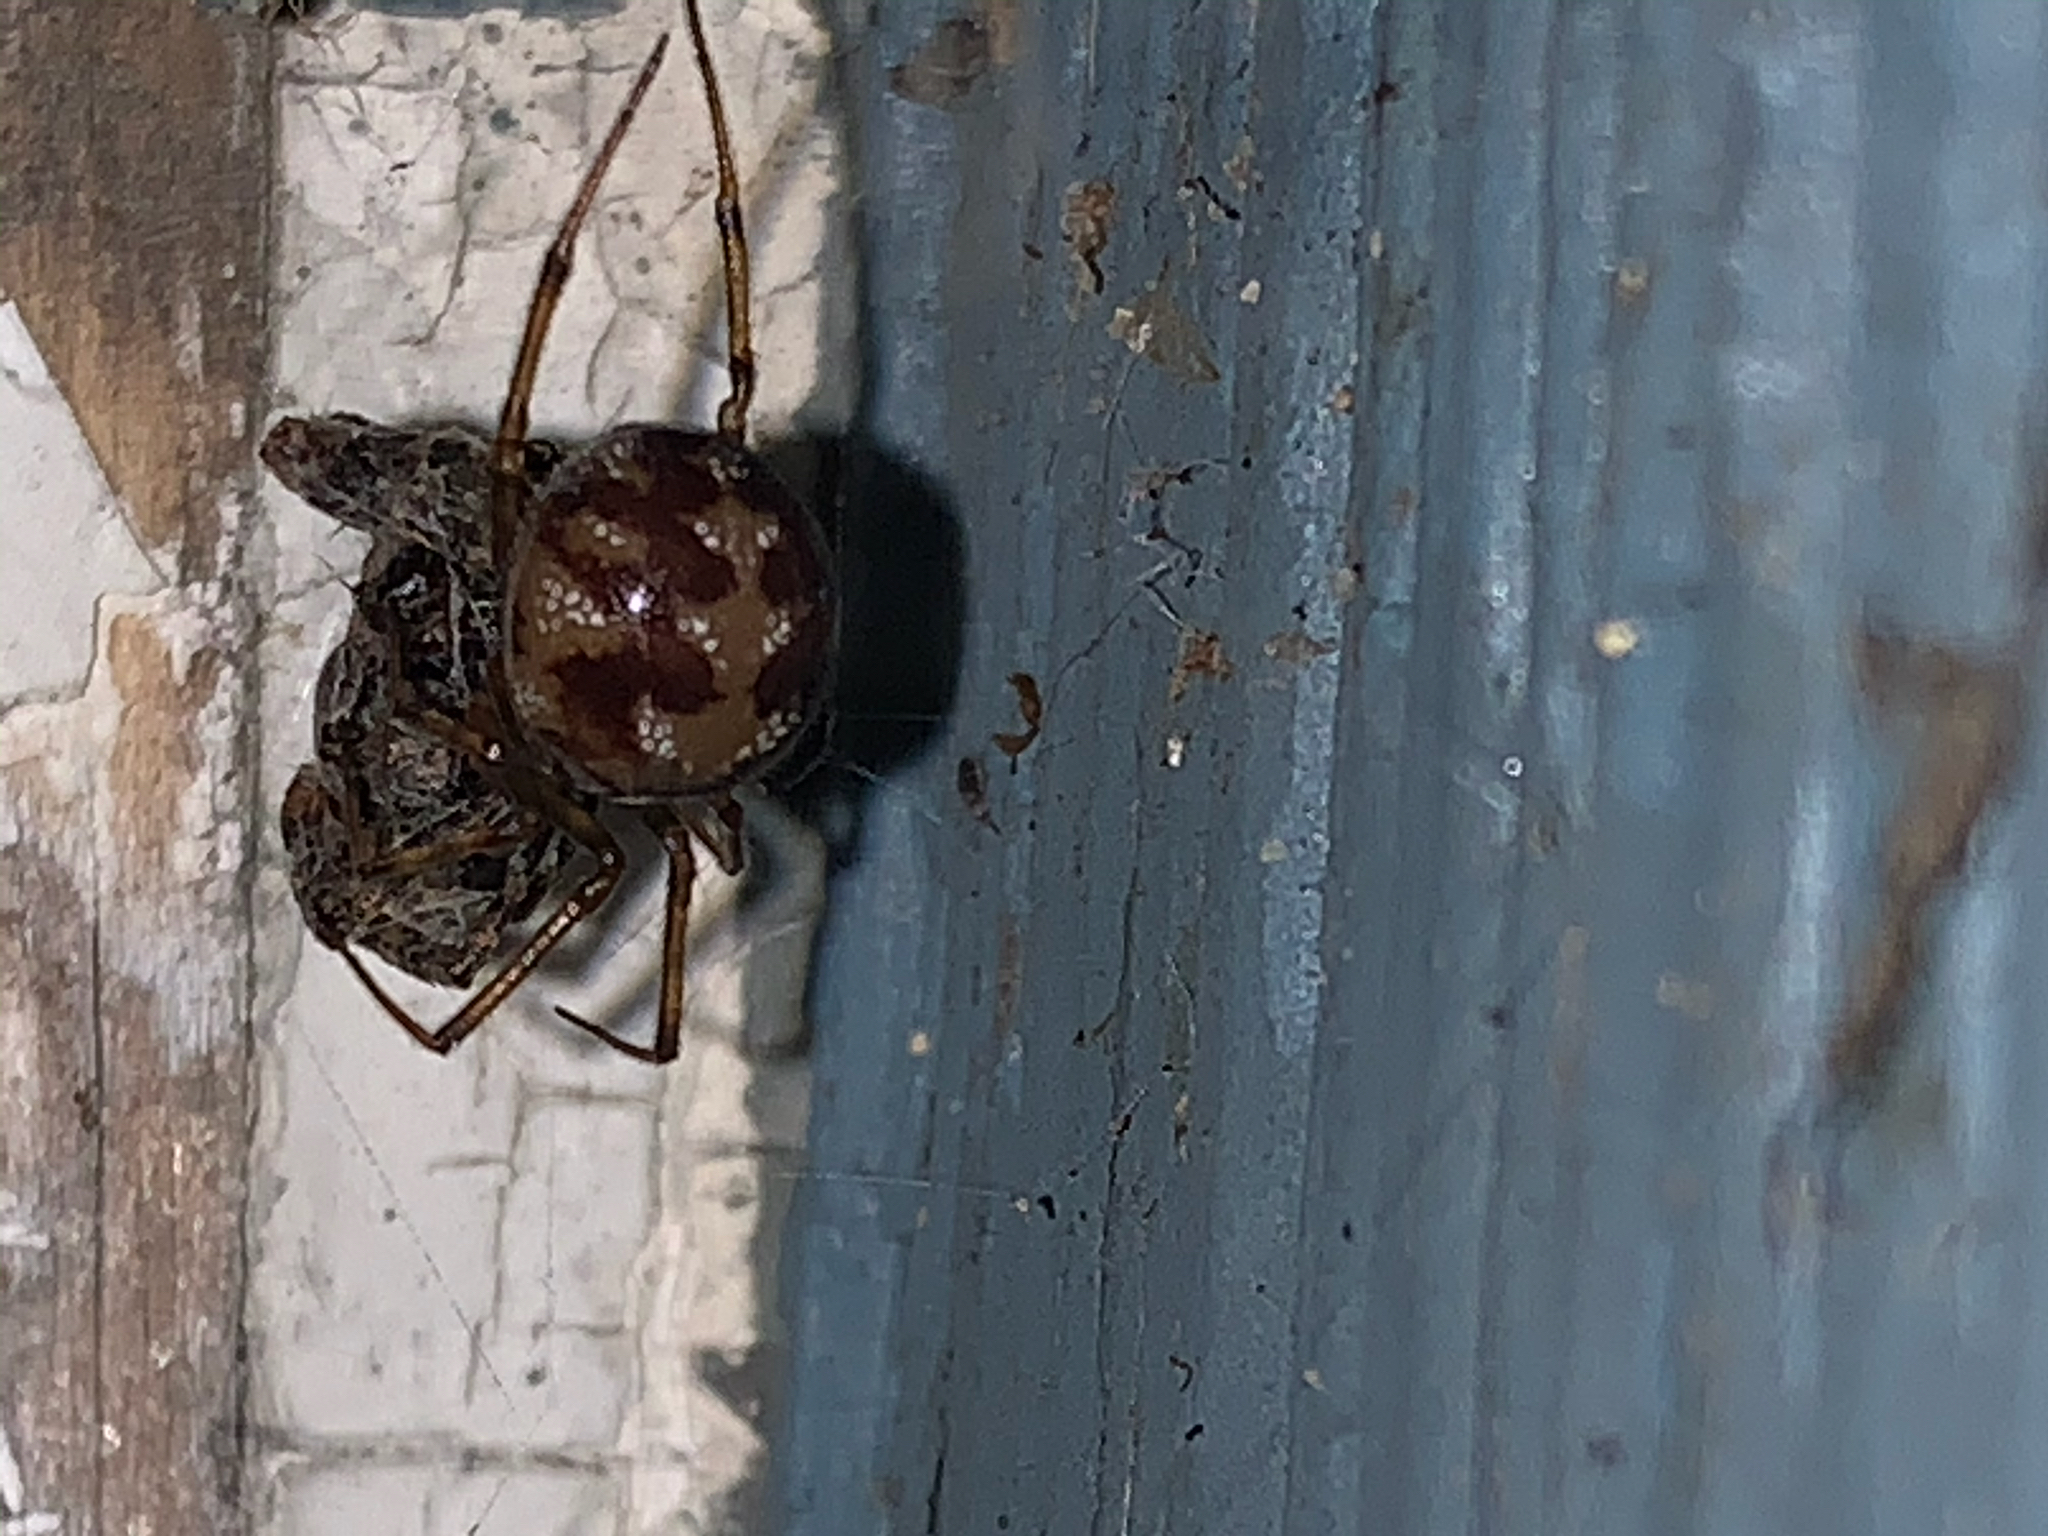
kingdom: Animalia
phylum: Arthropoda
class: Arachnida
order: Araneae
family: Theridiidae
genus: Steatoda
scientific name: Steatoda triangulosa
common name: Triangulate bud spider
